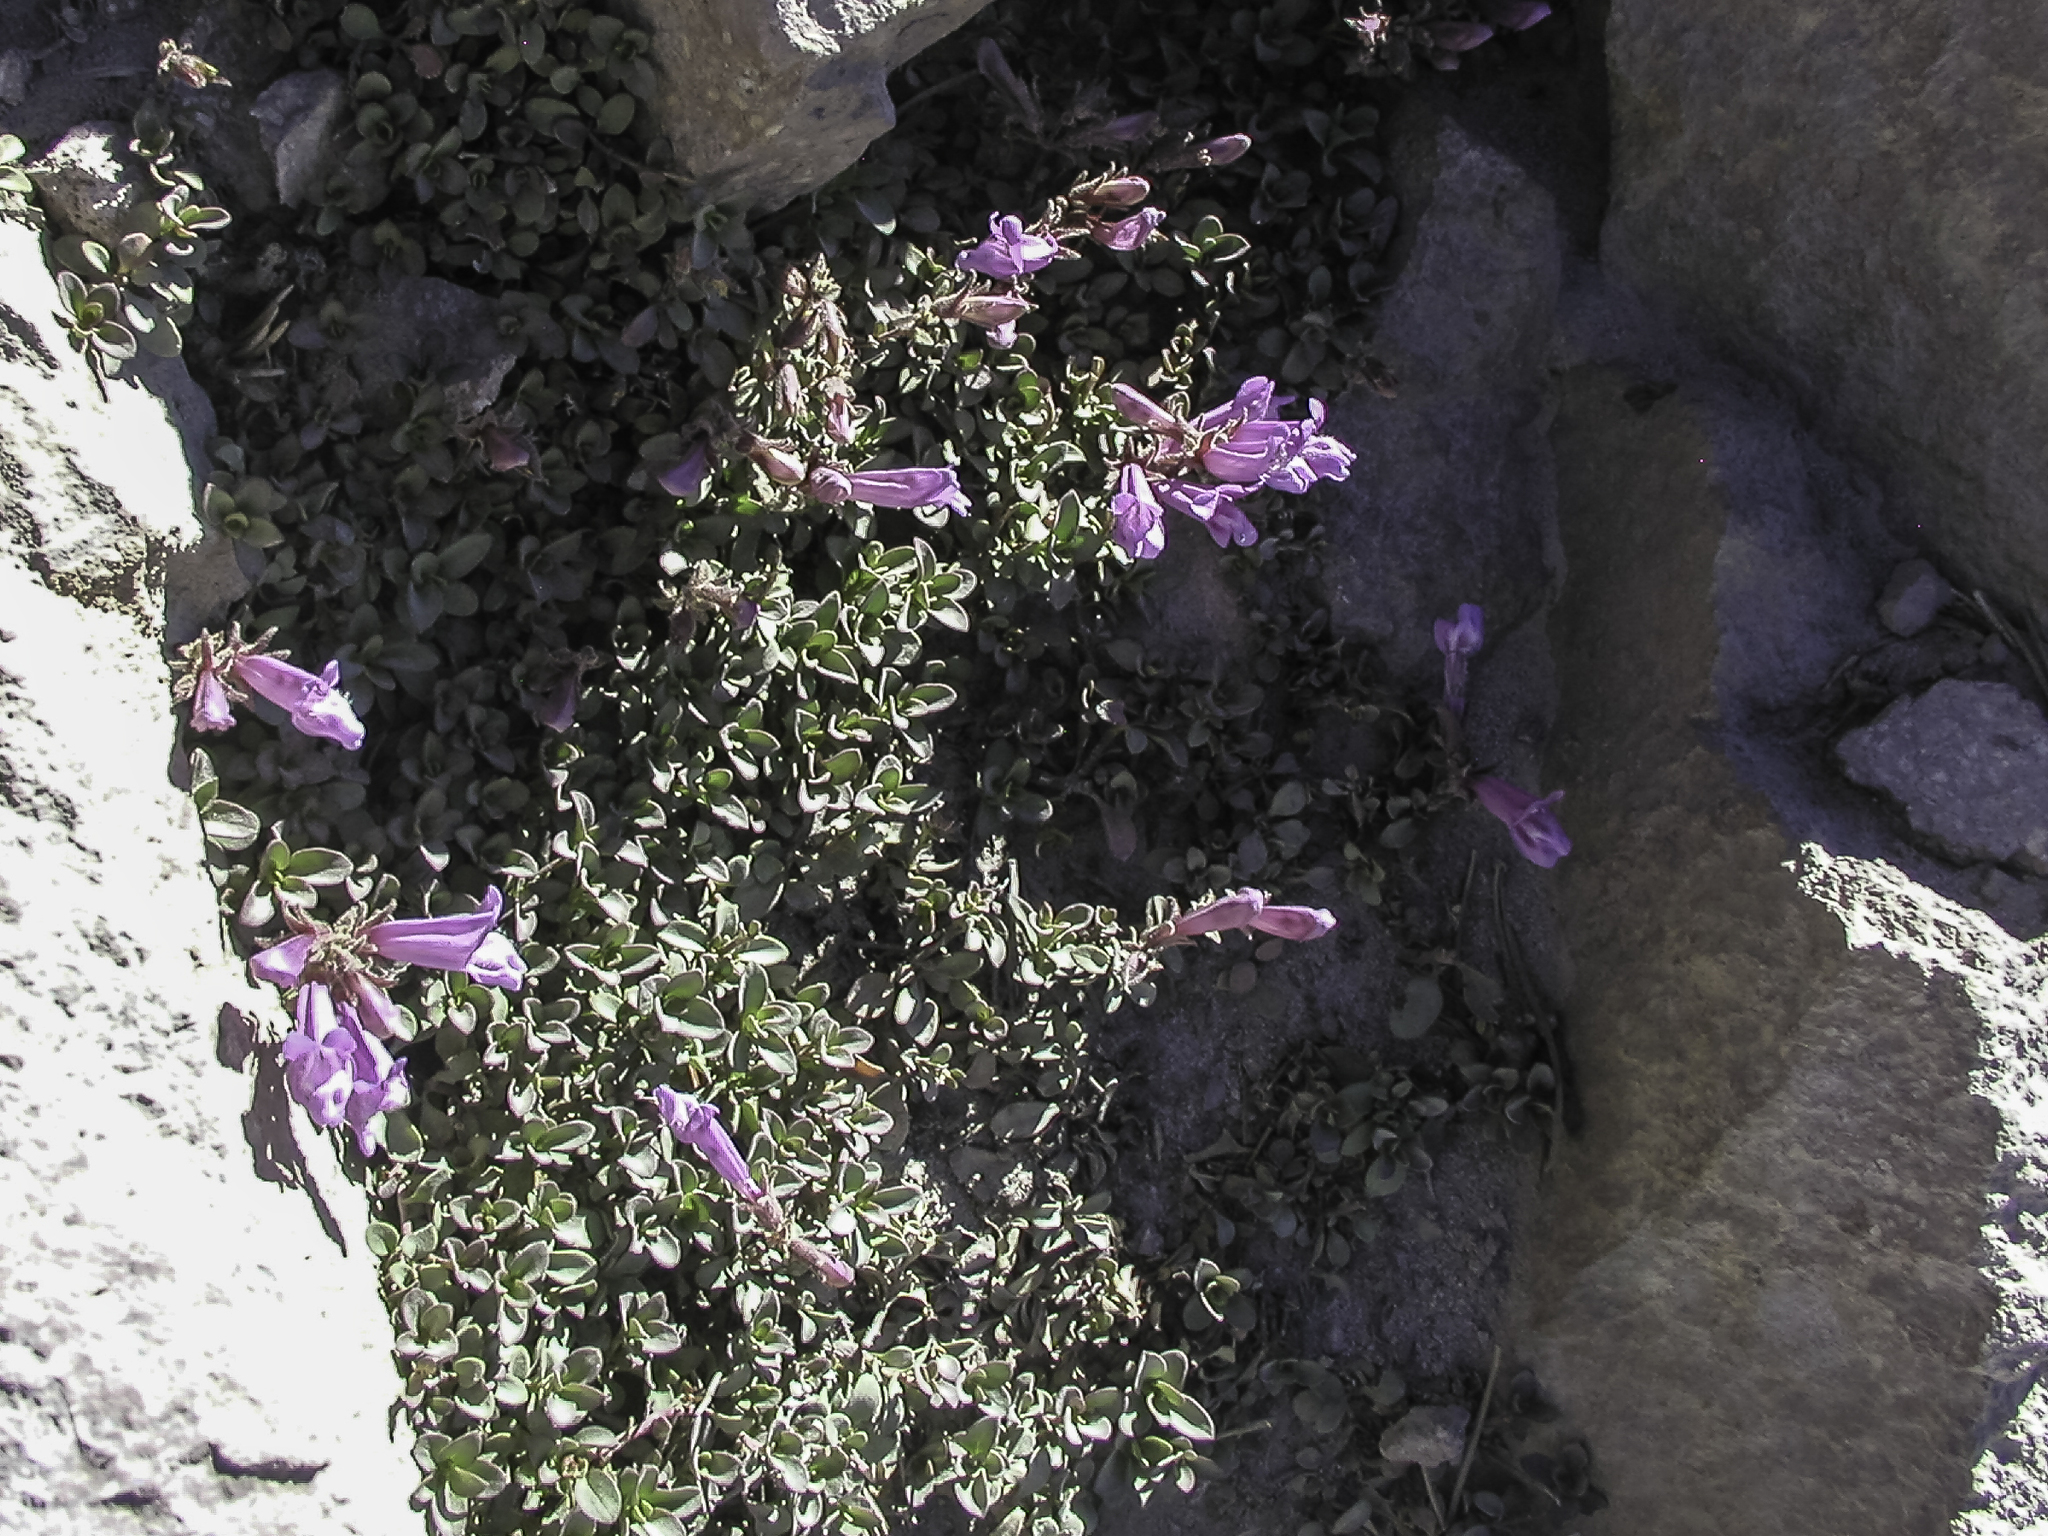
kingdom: Plantae
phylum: Tracheophyta
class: Magnoliopsida
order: Lamiales
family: Plantaginaceae
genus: Penstemon
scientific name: Penstemon davidsonii
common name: Davidson's penstemon
